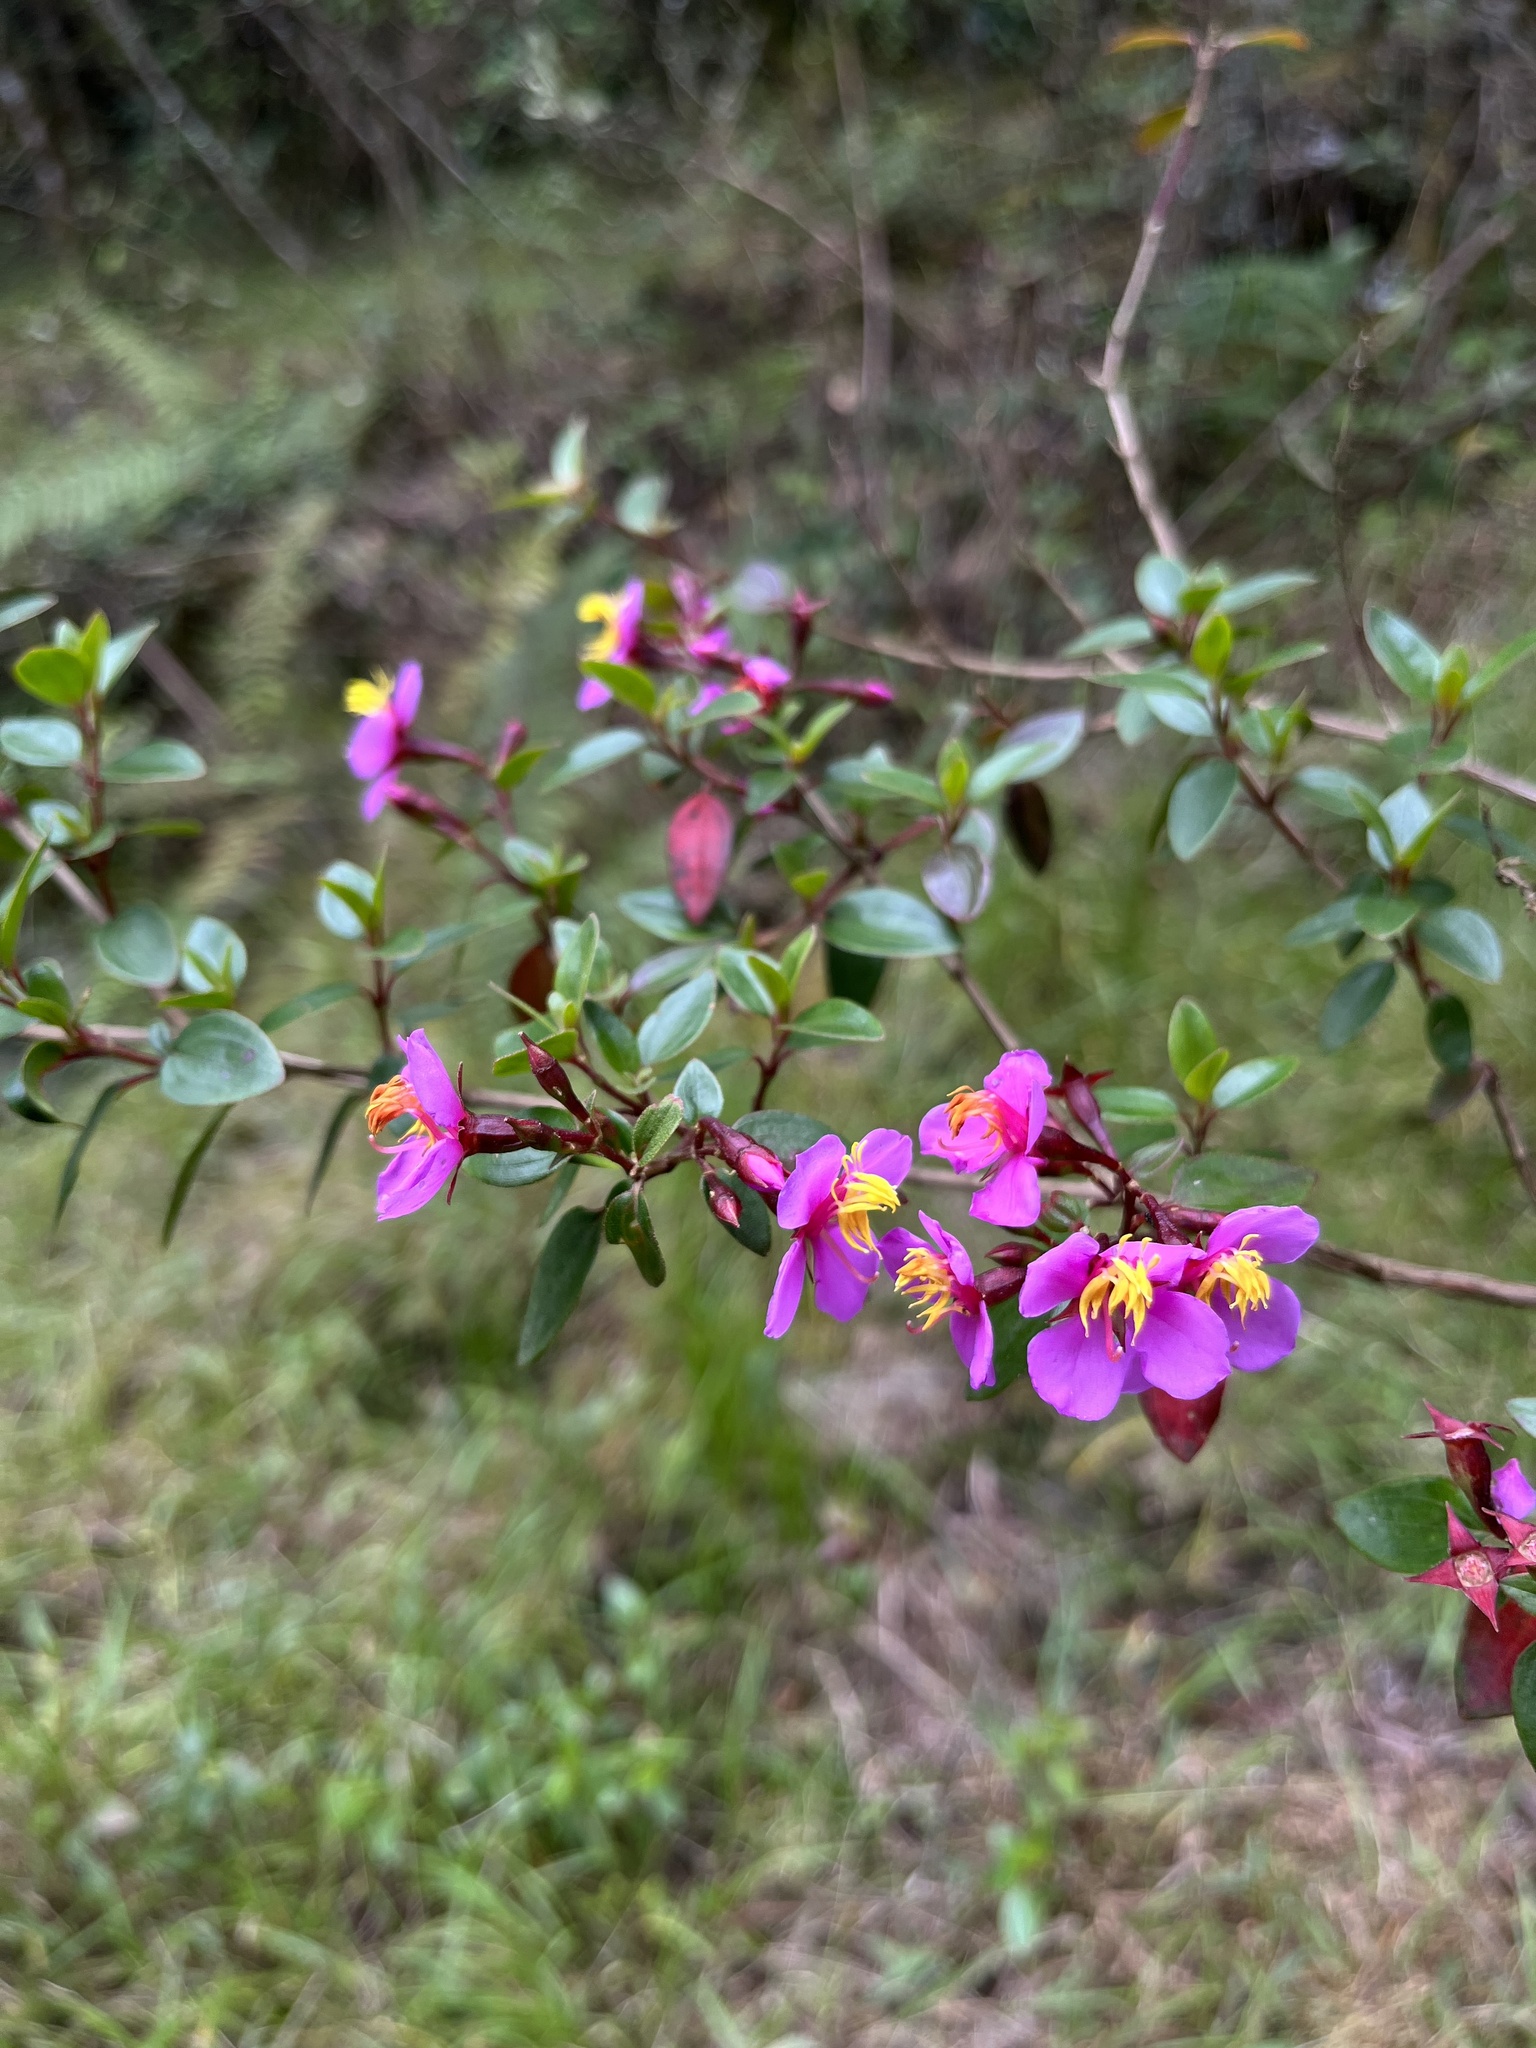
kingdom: Plantae
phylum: Tracheophyta
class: Magnoliopsida
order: Myrtales
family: Melastomataceae
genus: Monochaetum
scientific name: Monochaetum myrtoideum
